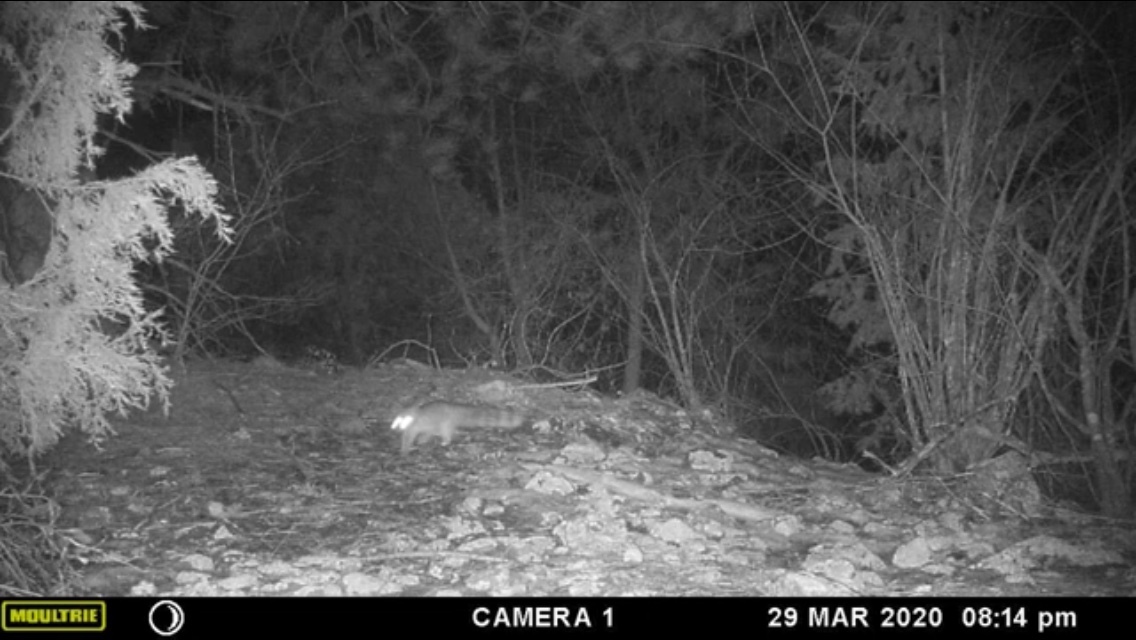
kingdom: Animalia
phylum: Chordata
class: Mammalia
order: Carnivora
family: Procyonidae
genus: Bassariscus
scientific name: Bassariscus astutus
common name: Ringtail
